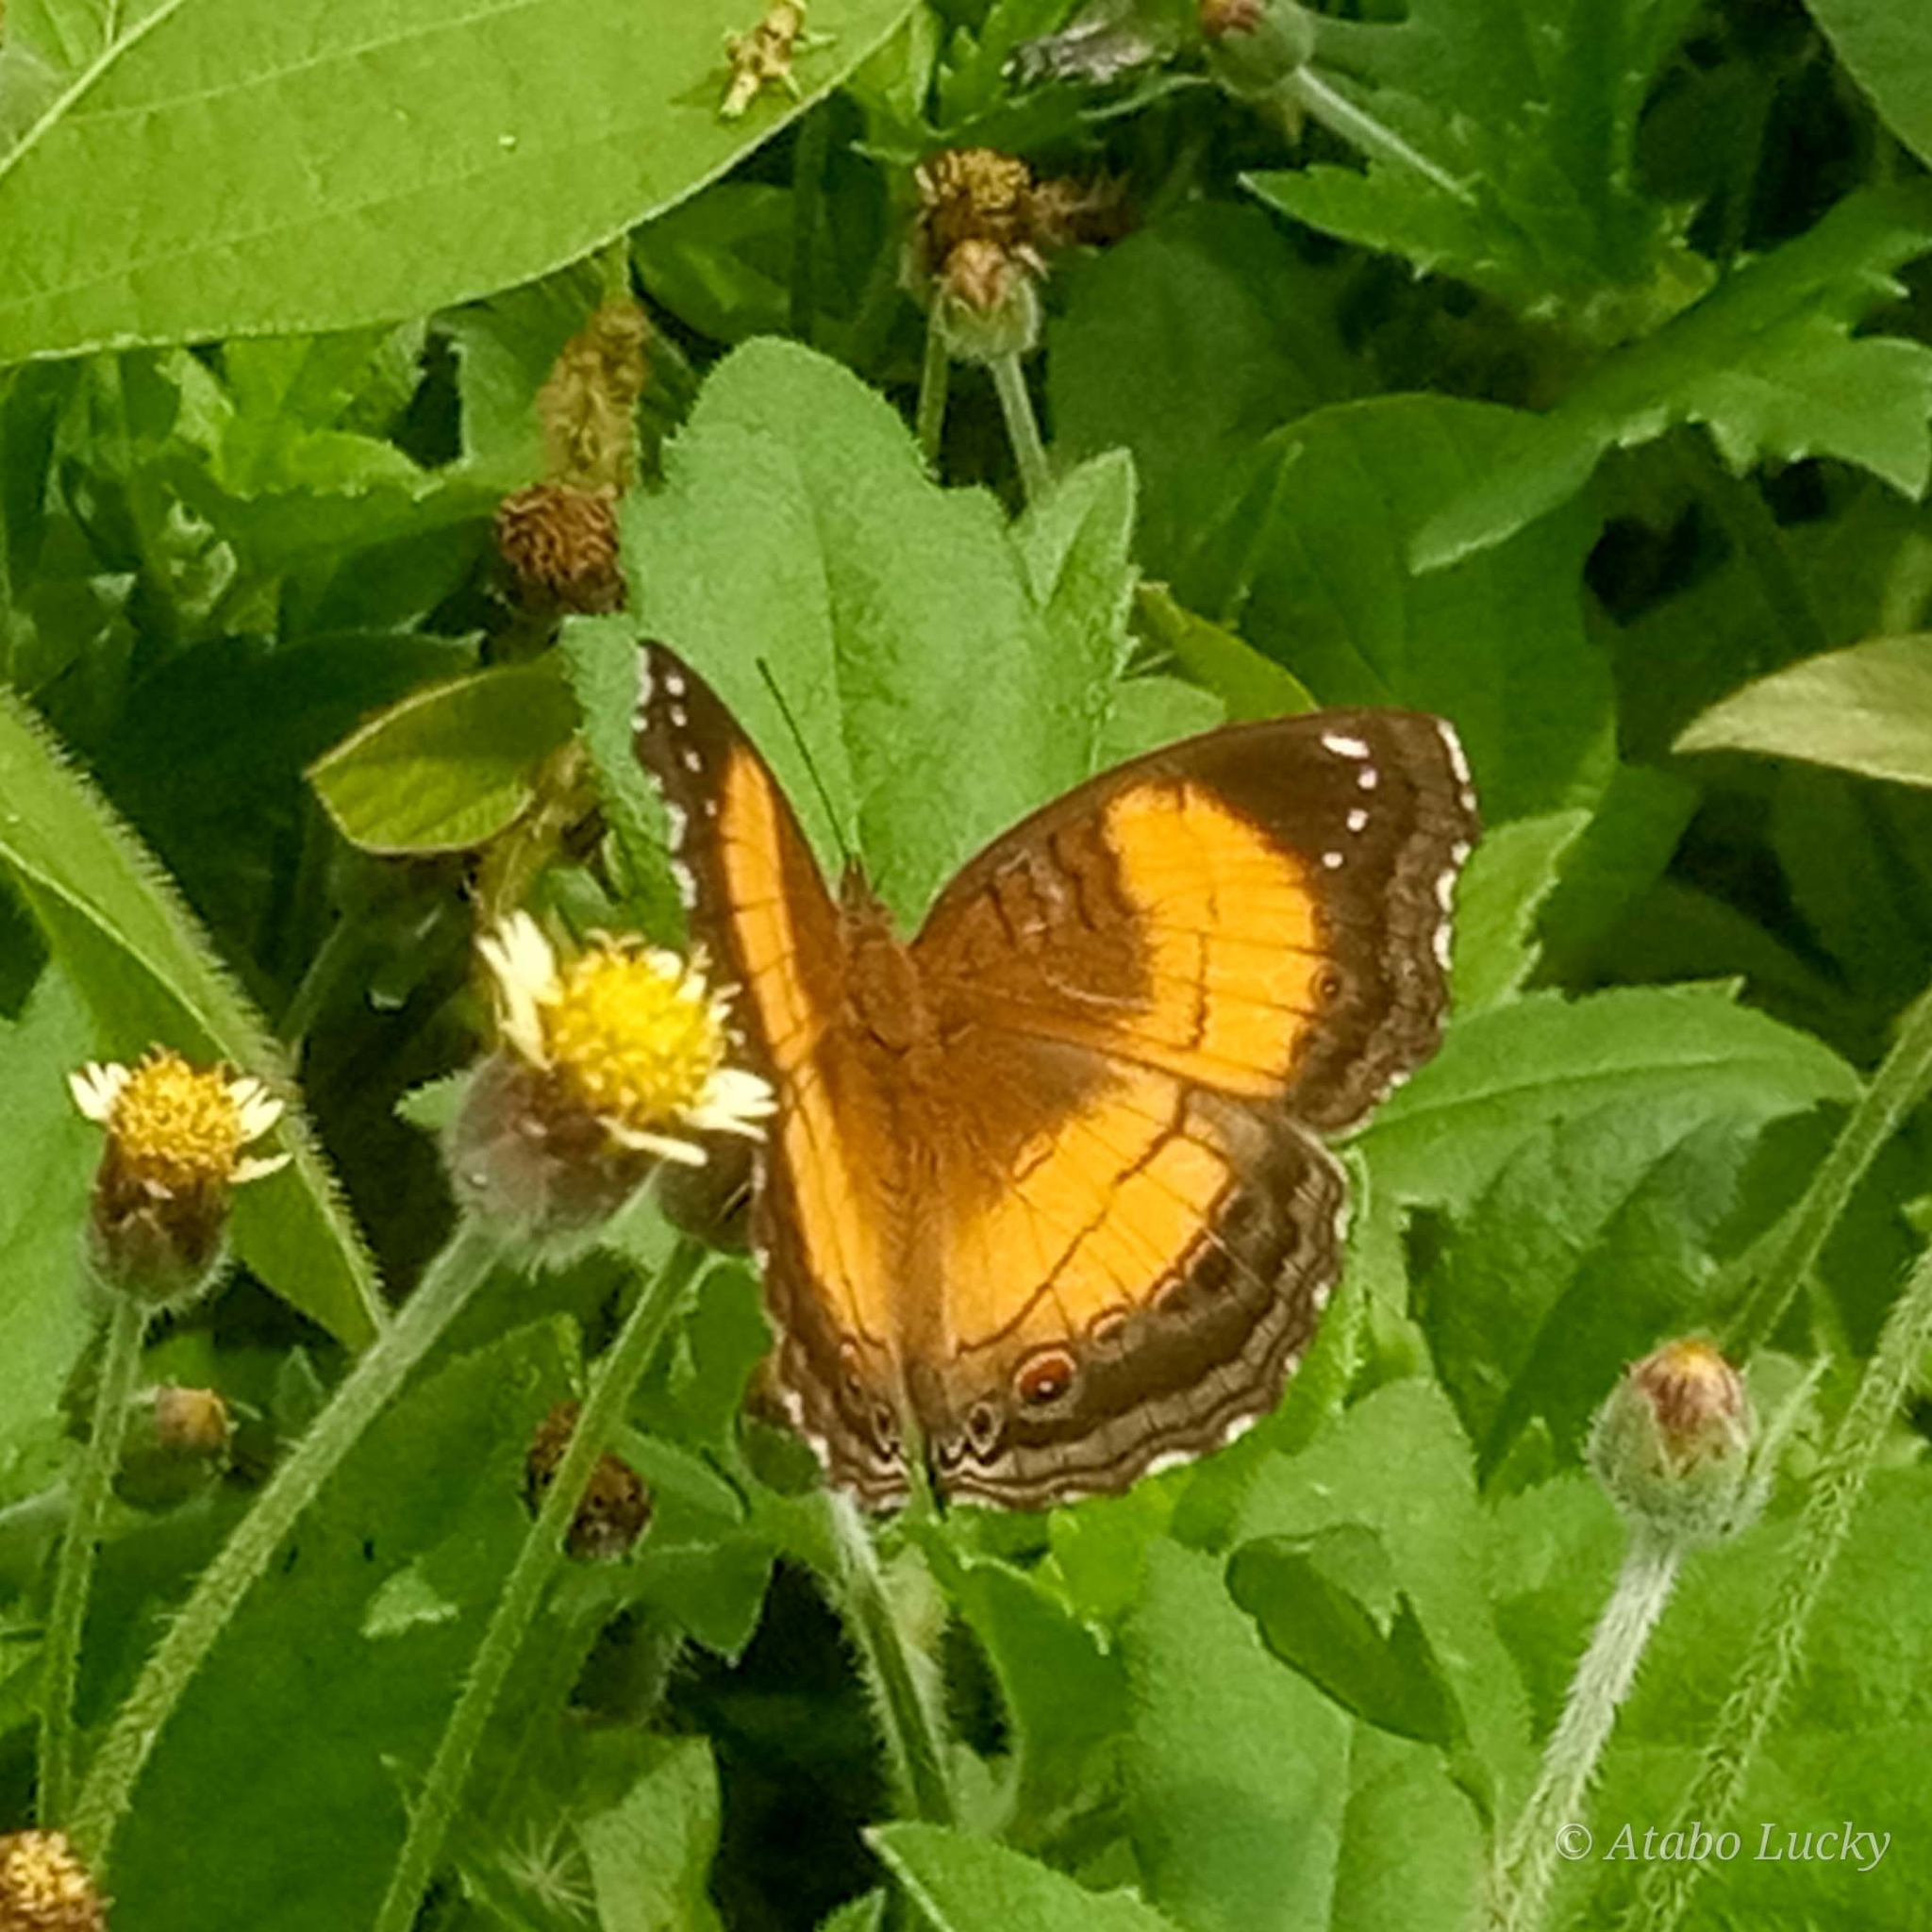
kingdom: Animalia
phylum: Arthropoda
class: Insecta
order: Lepidoptera
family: Nymphalidae
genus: Junonia
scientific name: Junonia terea
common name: Soldier pansy
